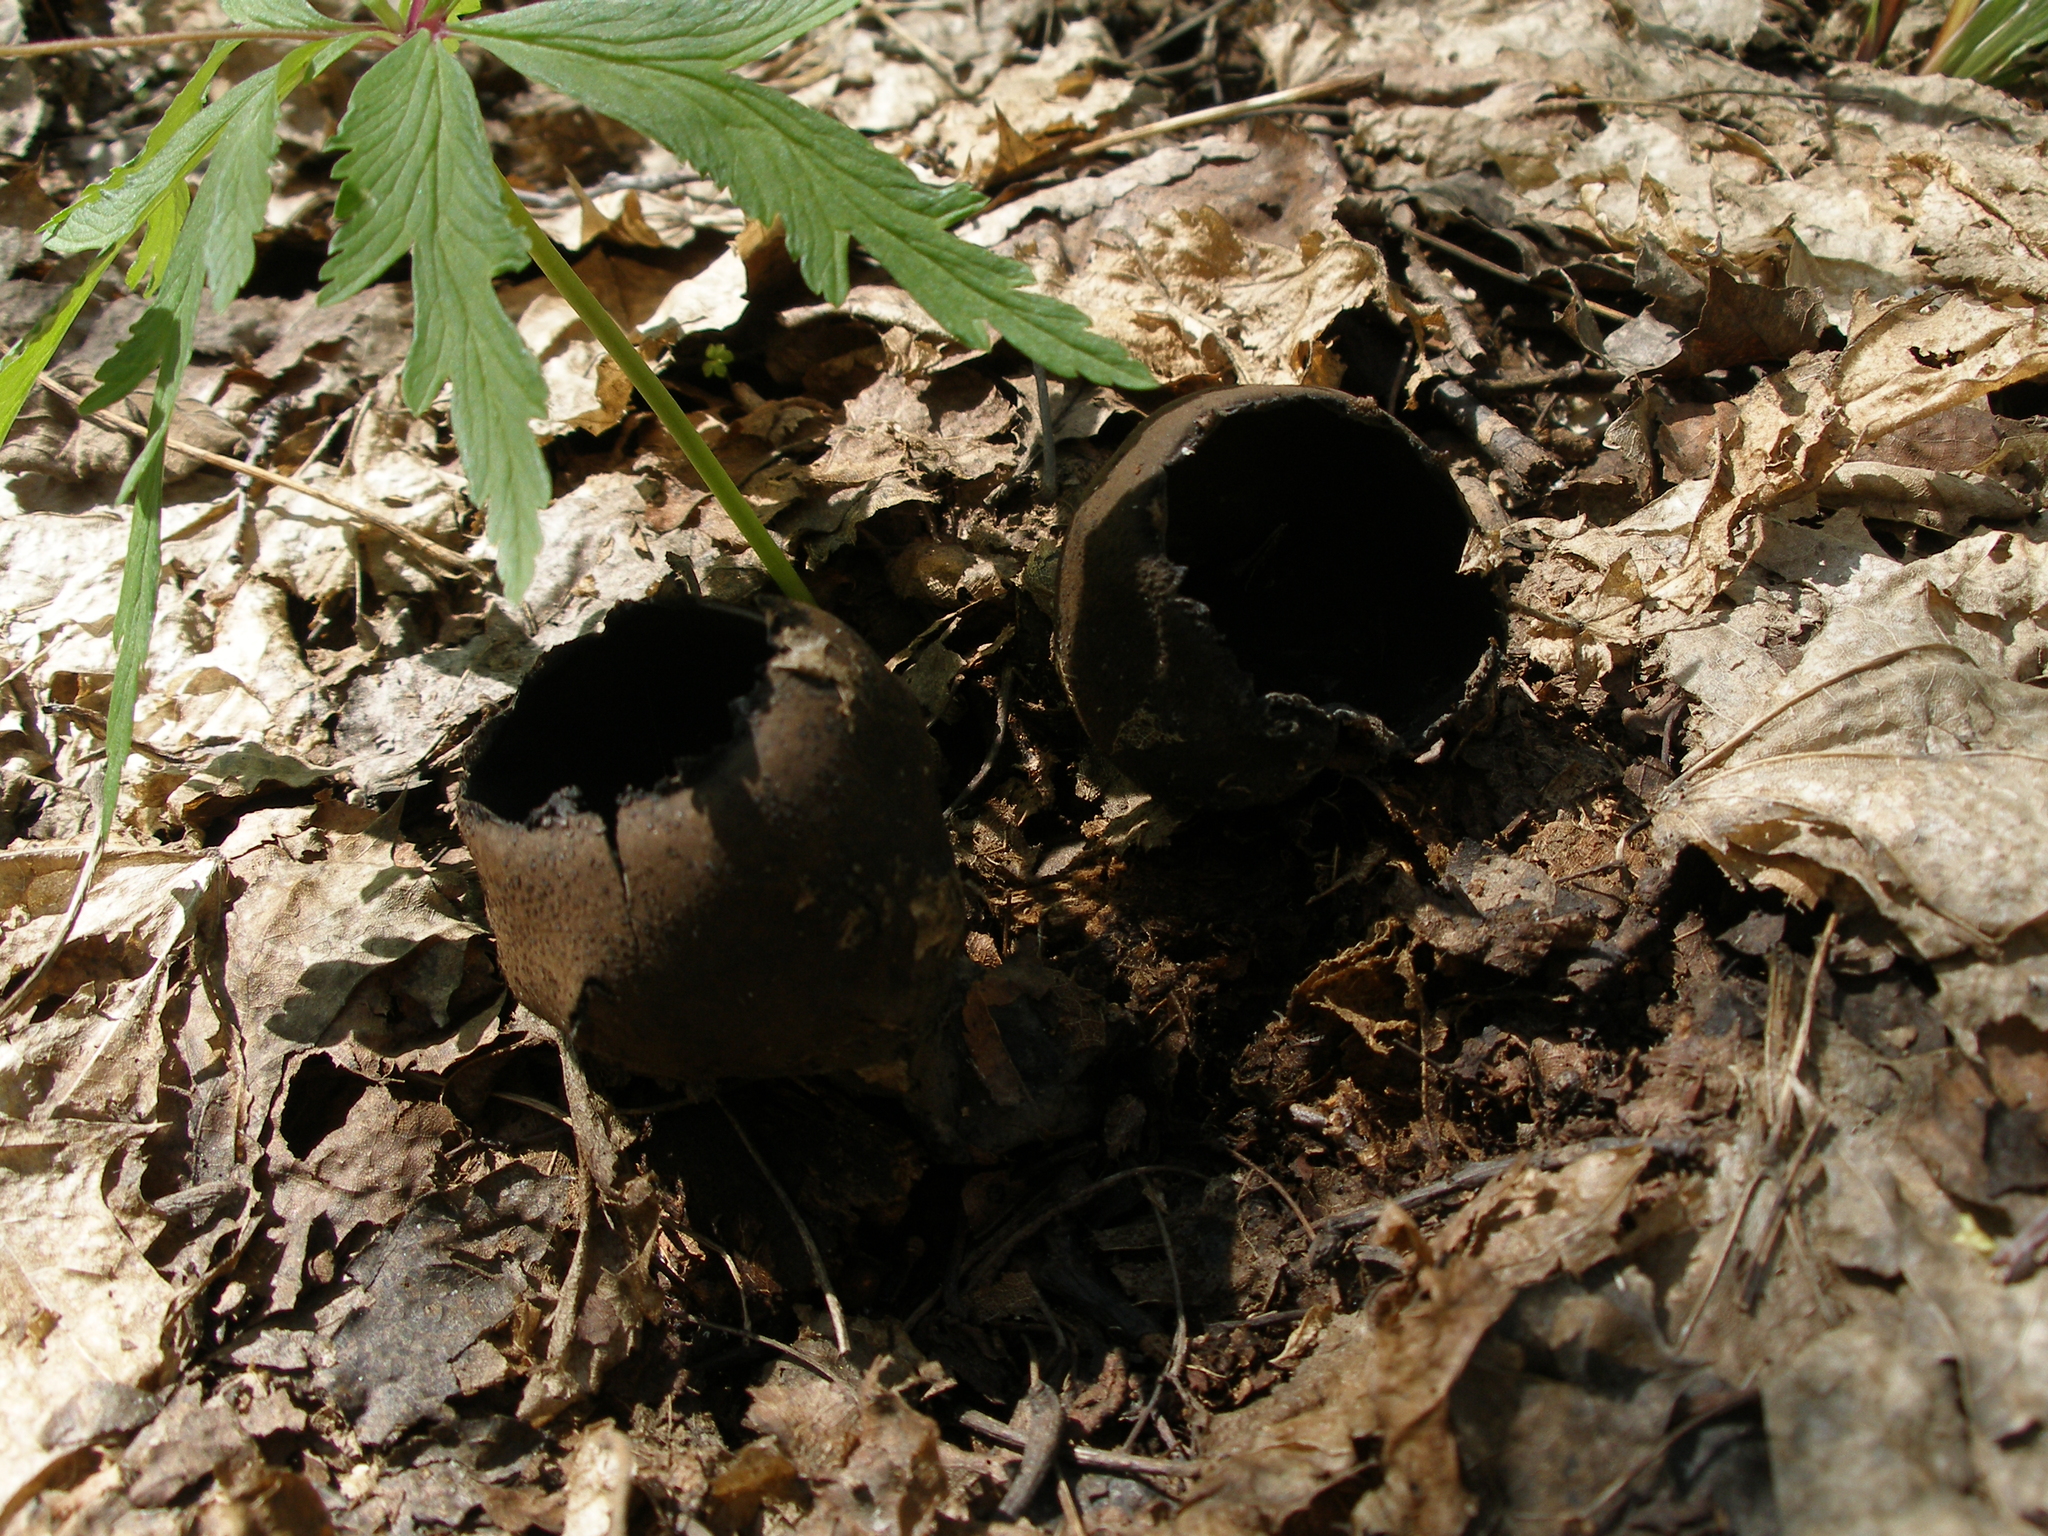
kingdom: Fungi
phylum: Ascomycota
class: Pezizomycetes
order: Pezizales
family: Sarcosomataceae
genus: Urnula
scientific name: Urnula craterium
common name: Devil's urn
